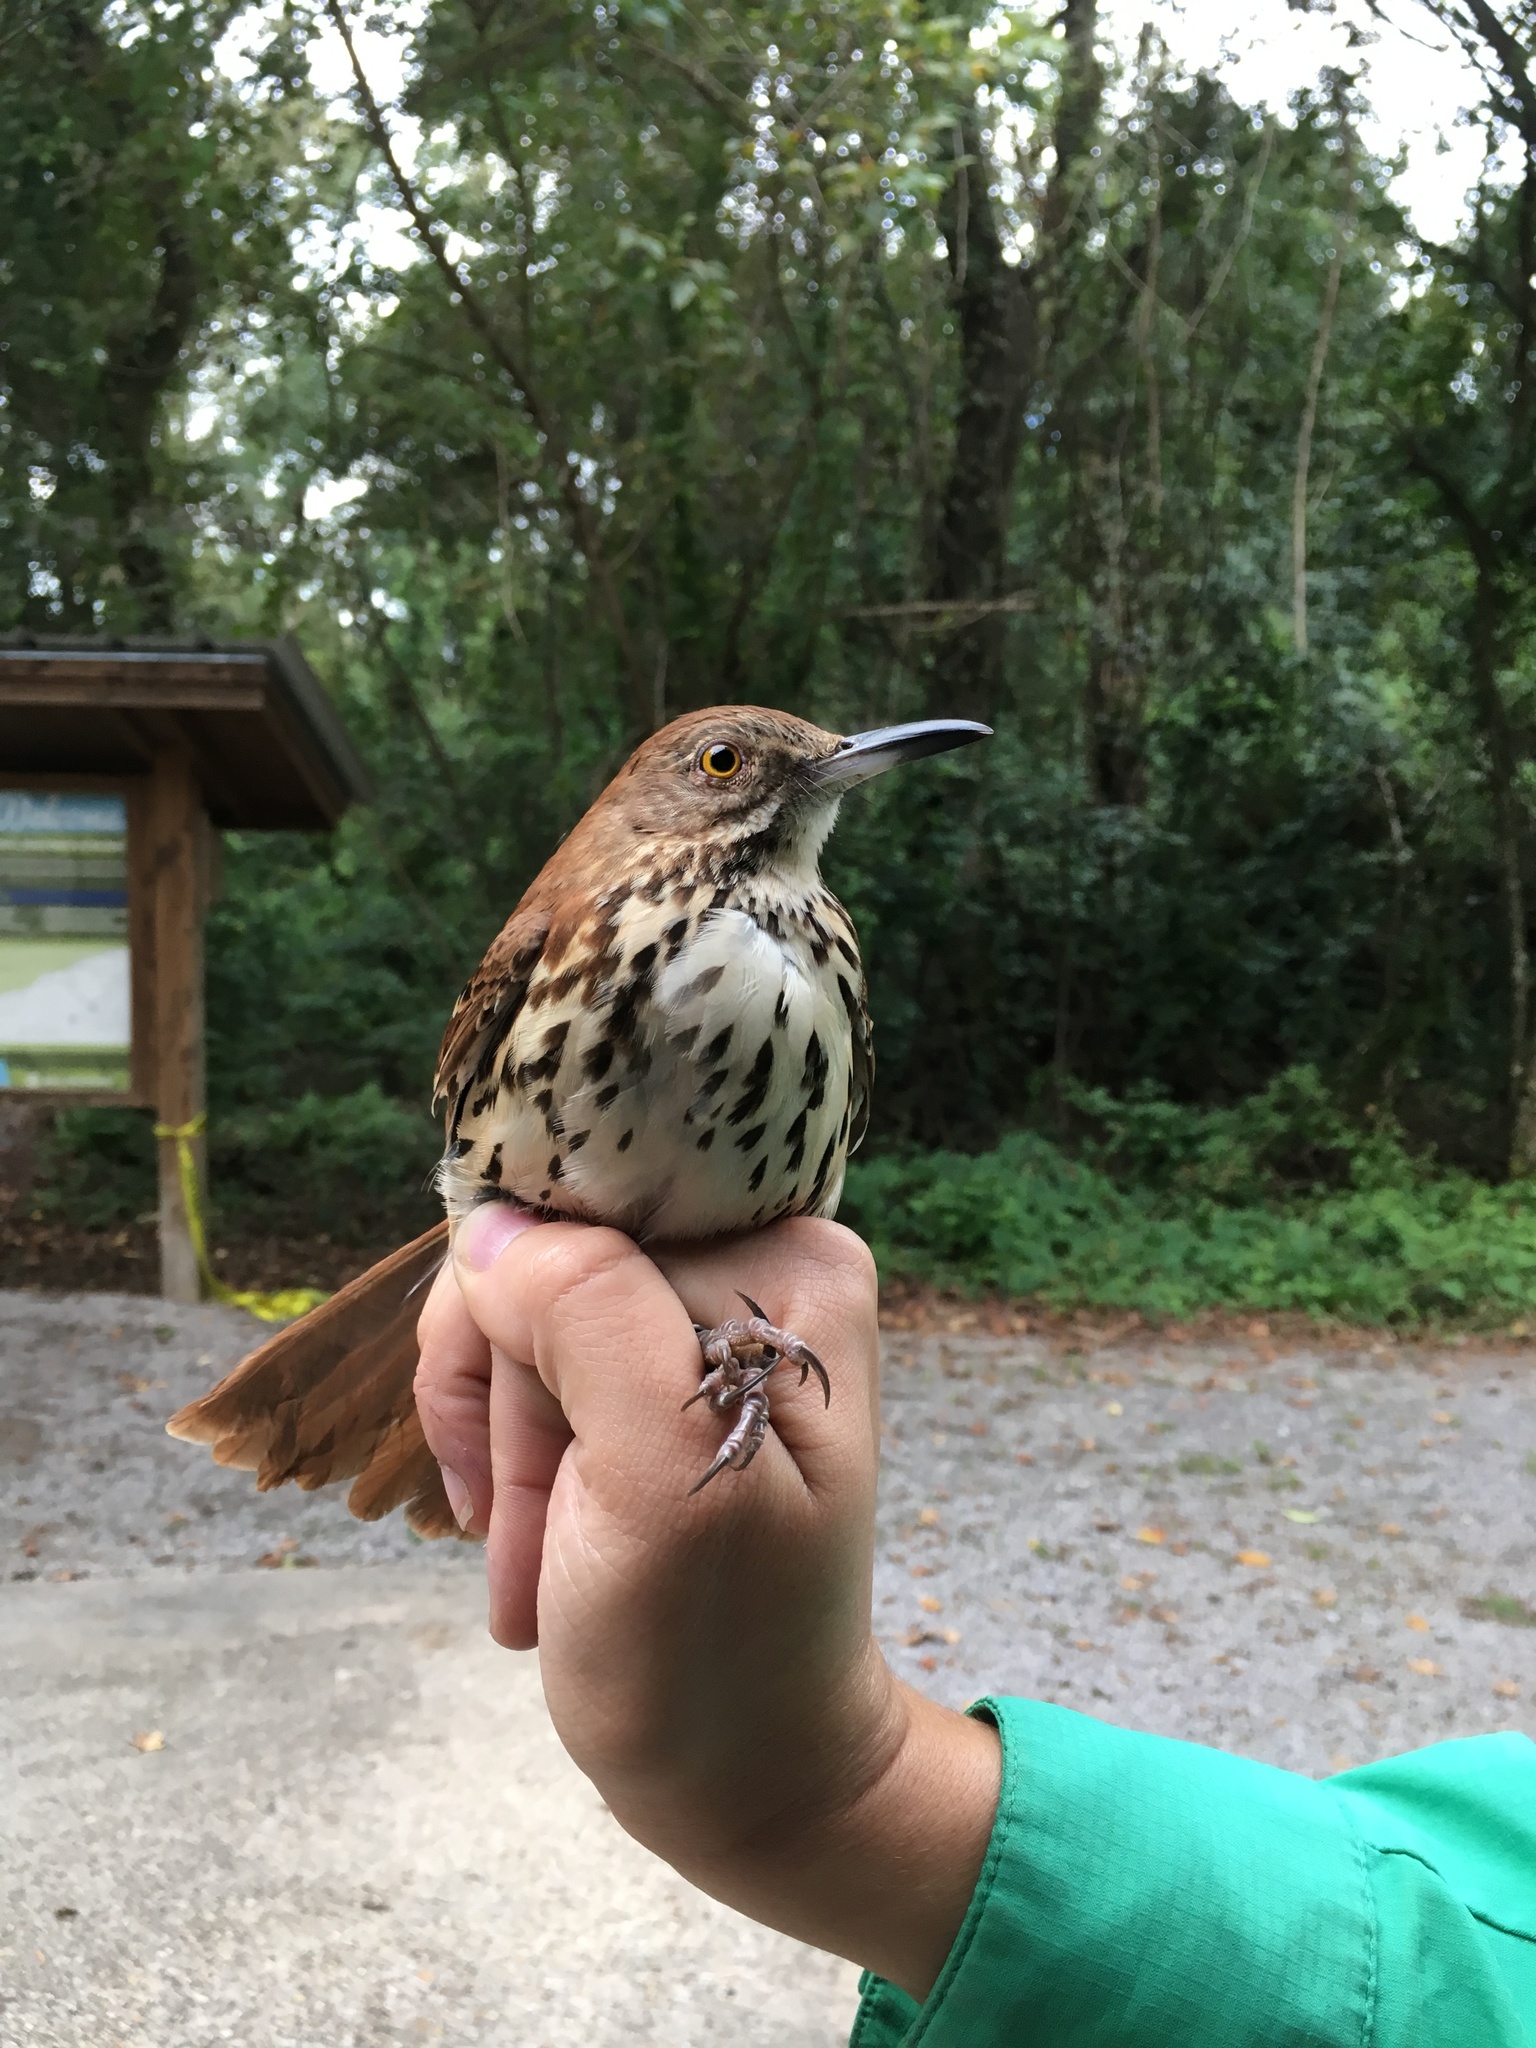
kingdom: Animalia
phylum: Chordata
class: Aves
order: Passeriformes
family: Mimidae
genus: Toxostoma
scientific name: Toxostoma rufum
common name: Brown thrasher
